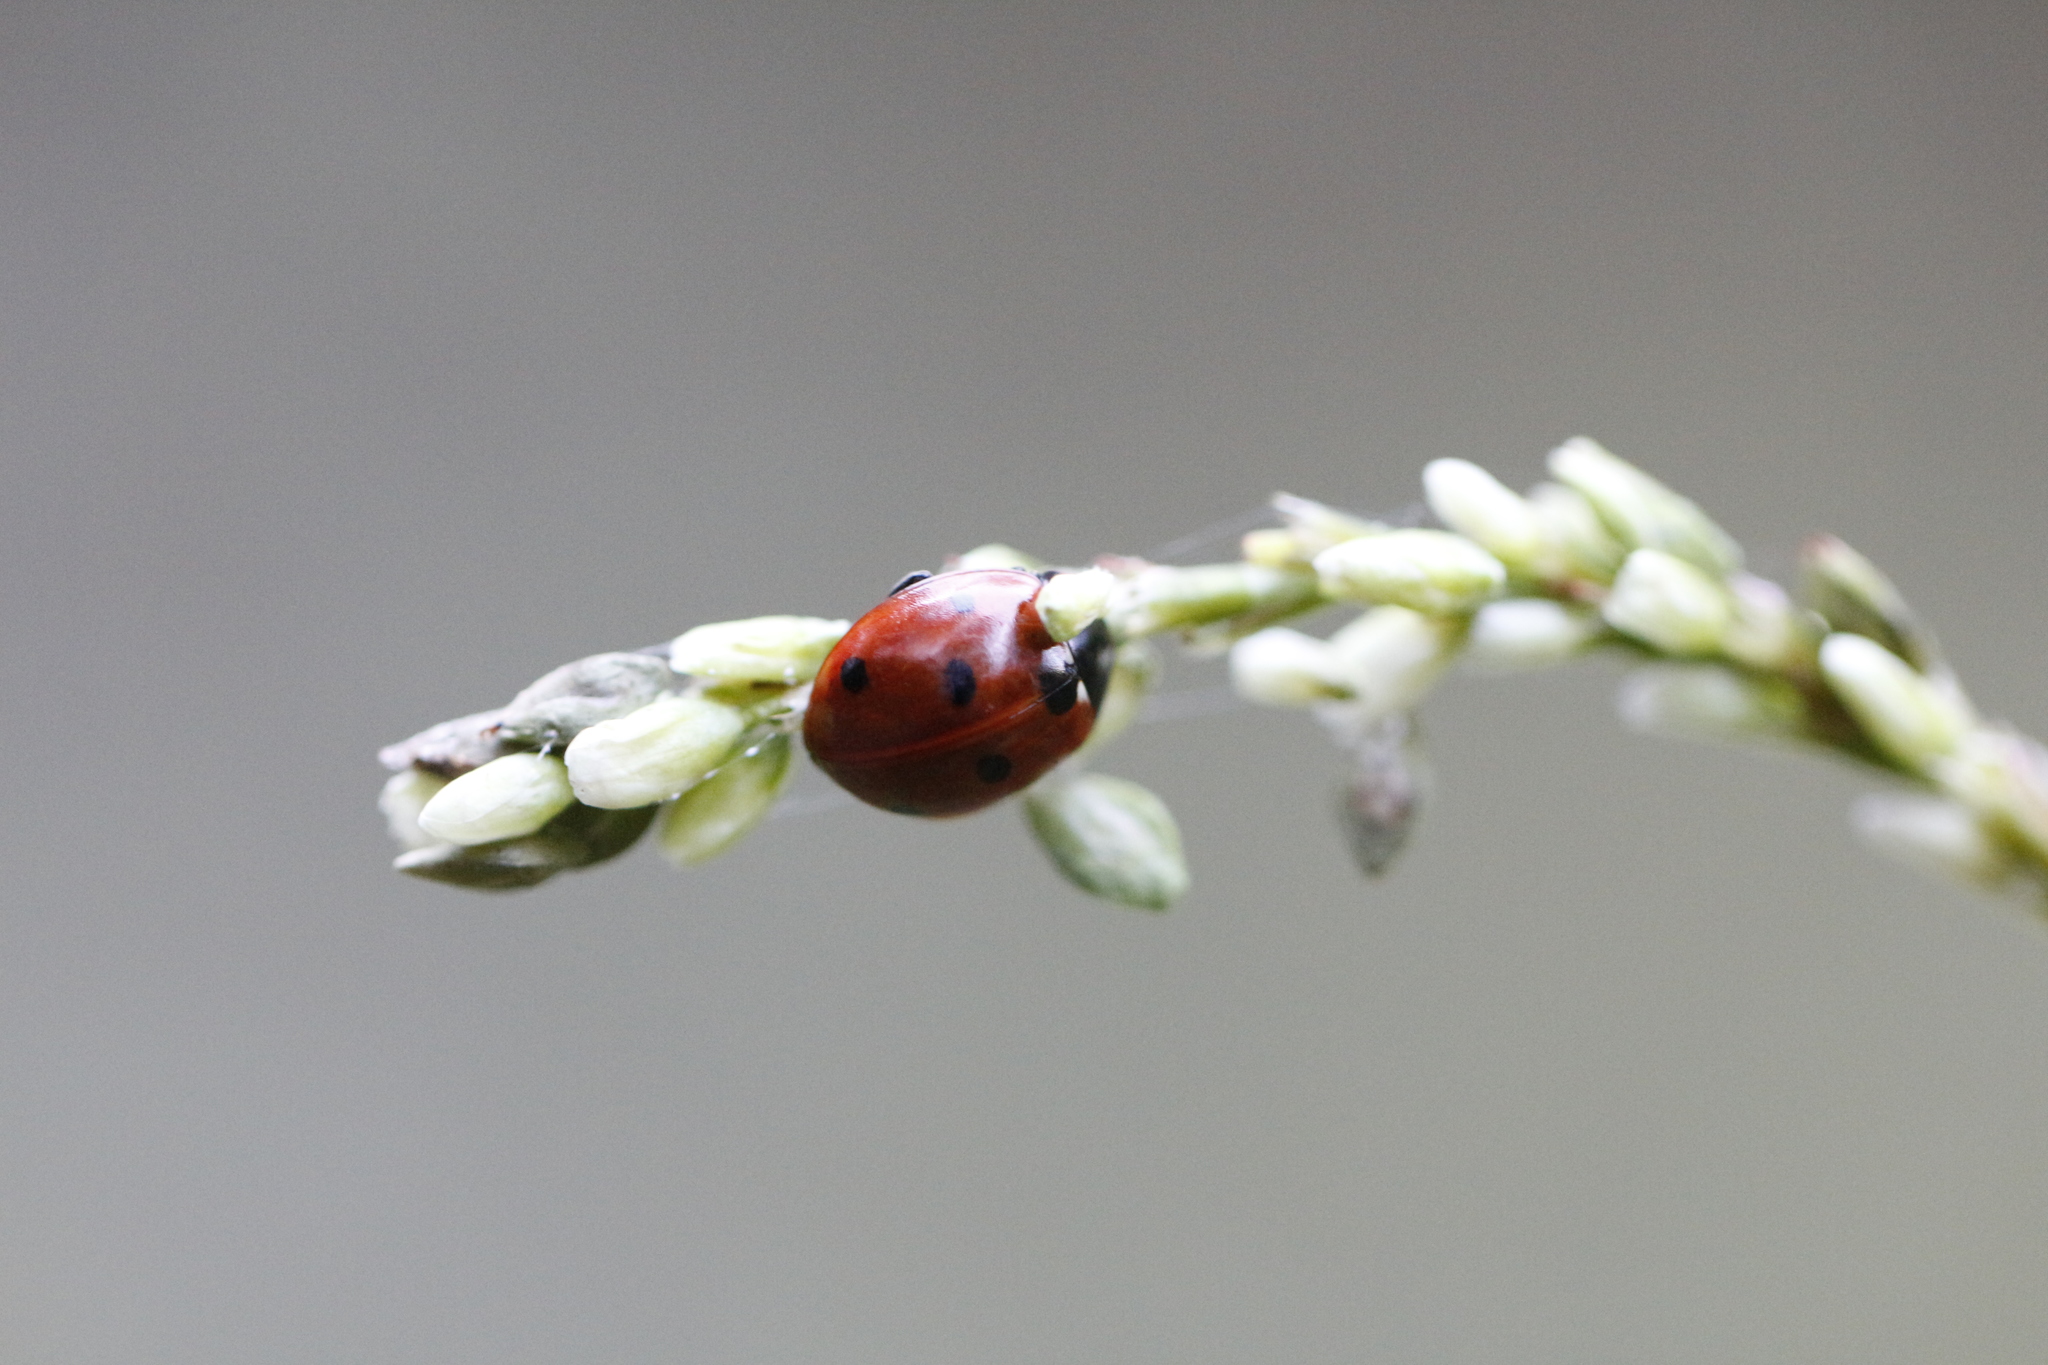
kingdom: Animalia
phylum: Arthropoda
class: Insecta
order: Coleoptera
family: Coccinellidae
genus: Coccinella
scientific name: Coccinella septempunctata
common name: Sevenspotted lady beetle
